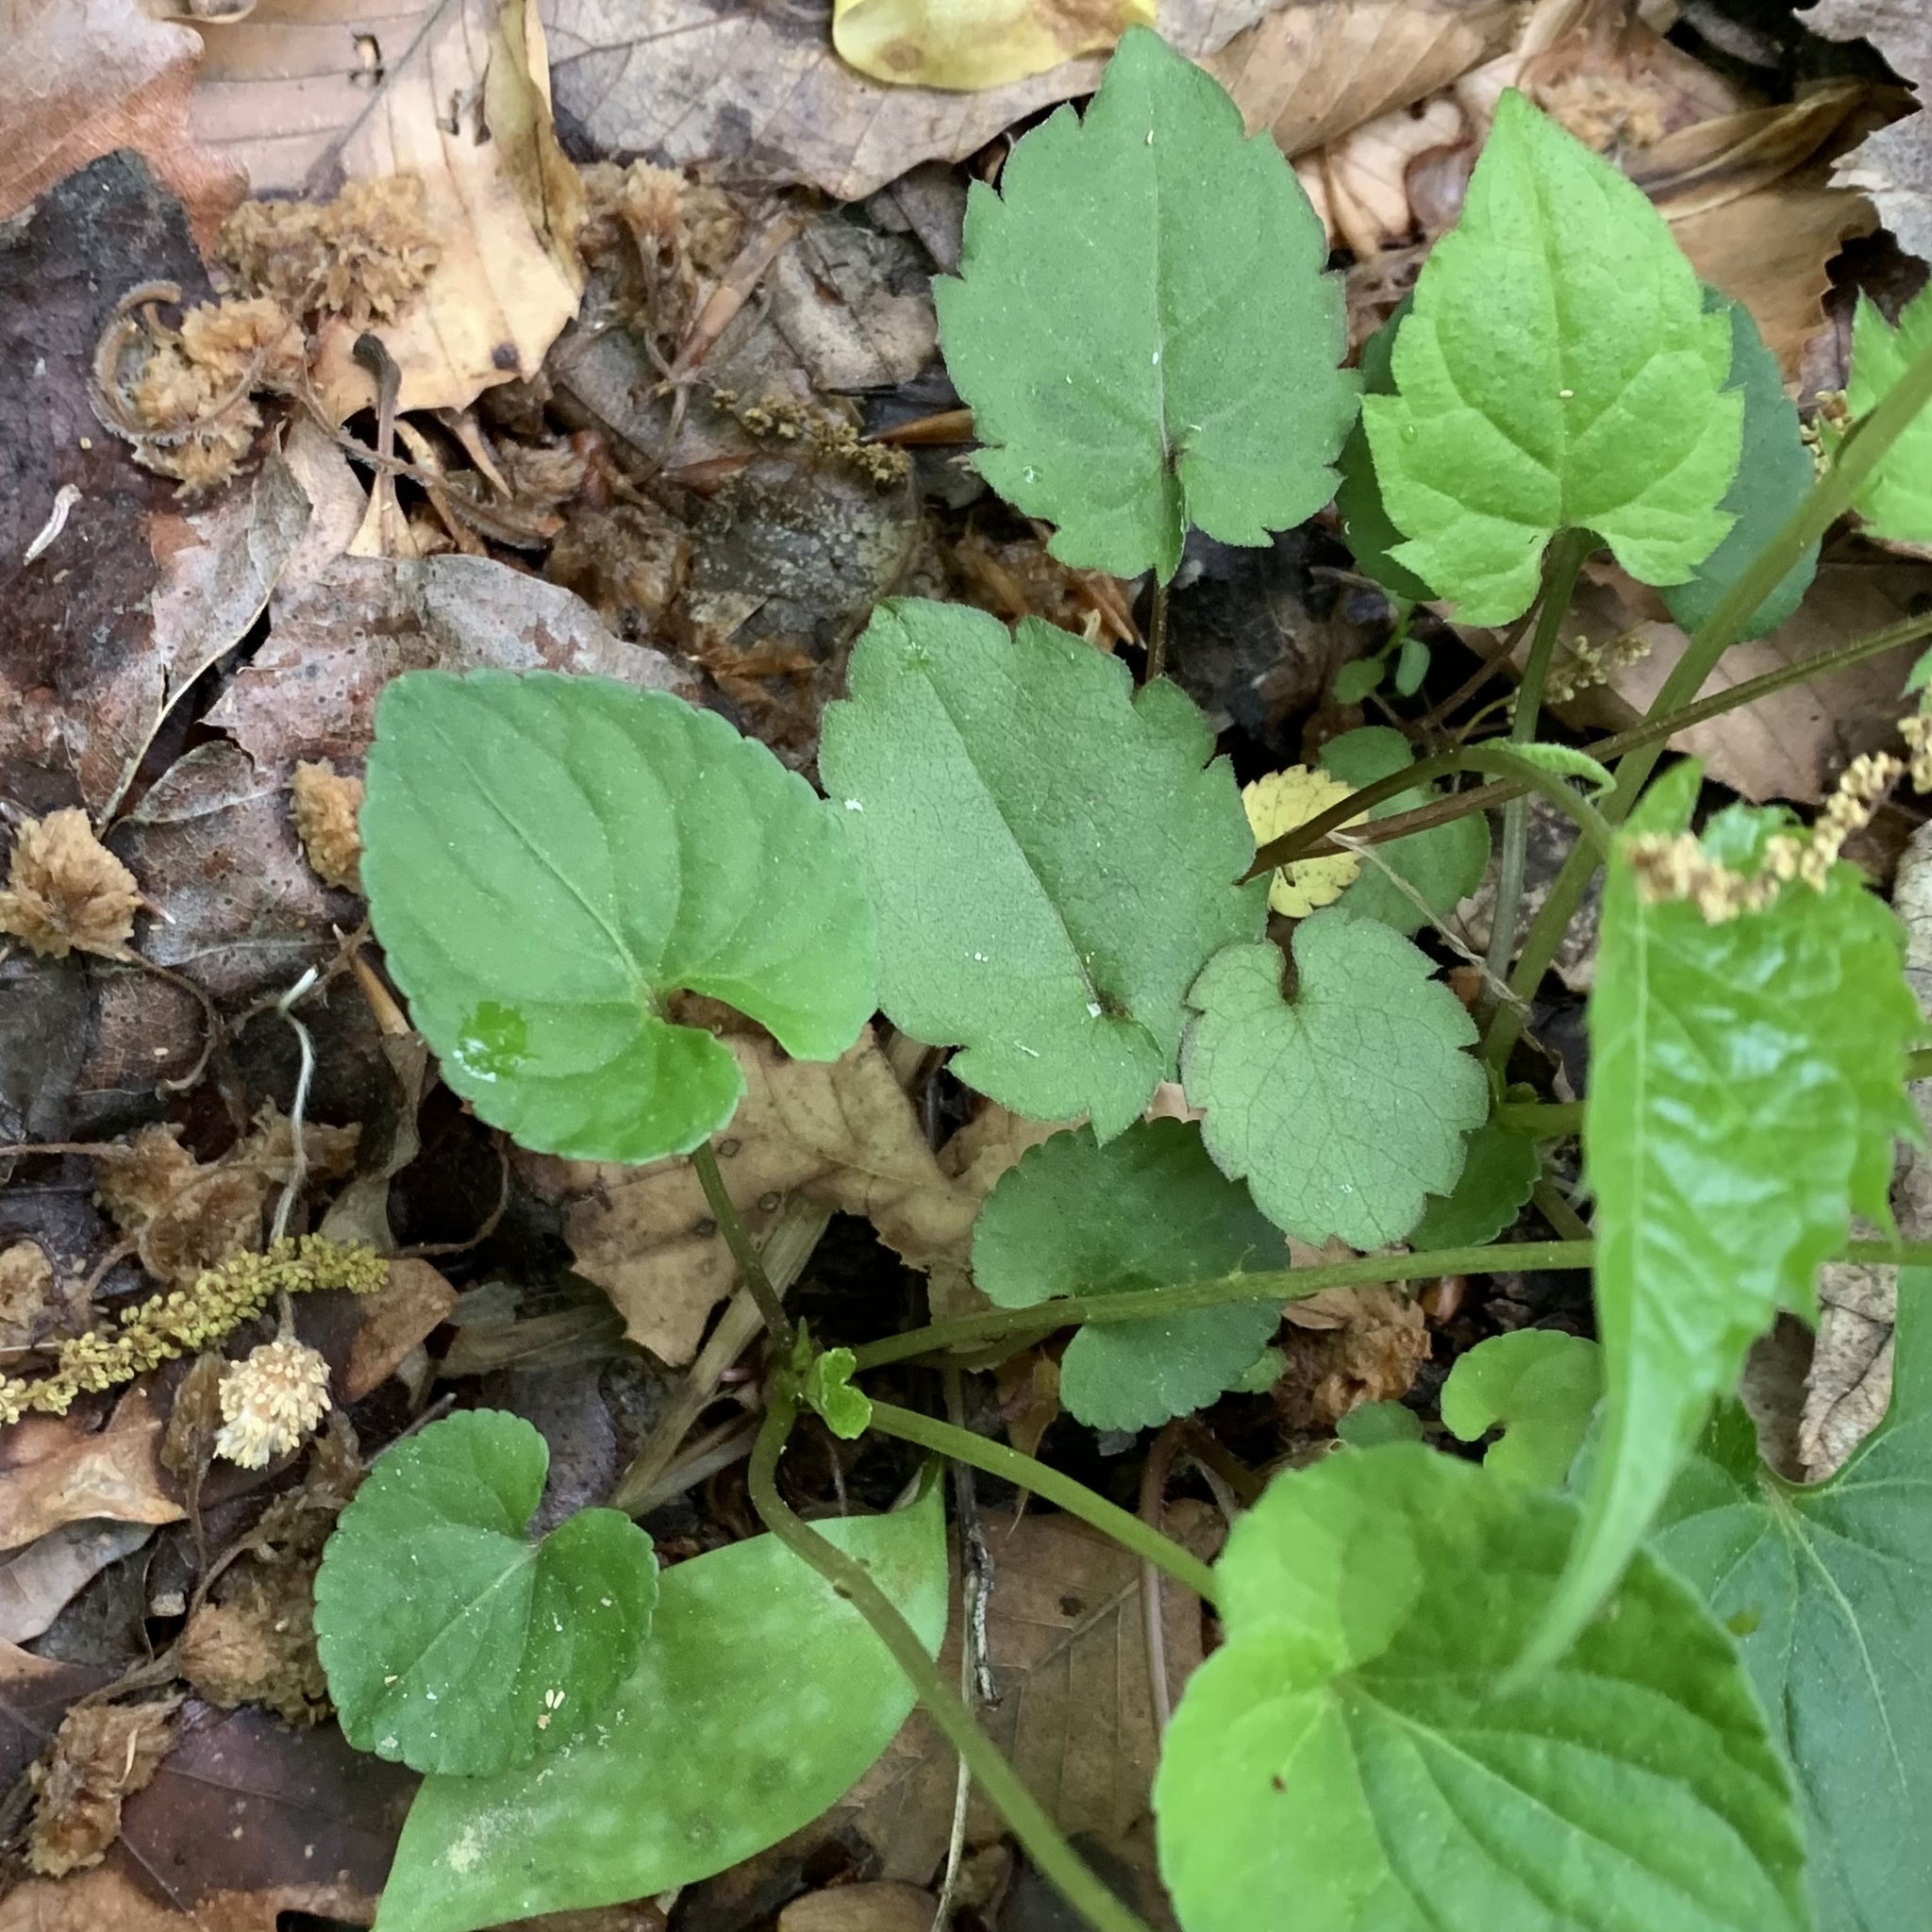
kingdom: Plantae
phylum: Tracheophyta
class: Magnoliopsida
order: Malpighiales
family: Violaceae
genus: Viola
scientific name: Viola cucullata
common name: Marsh blue violet
